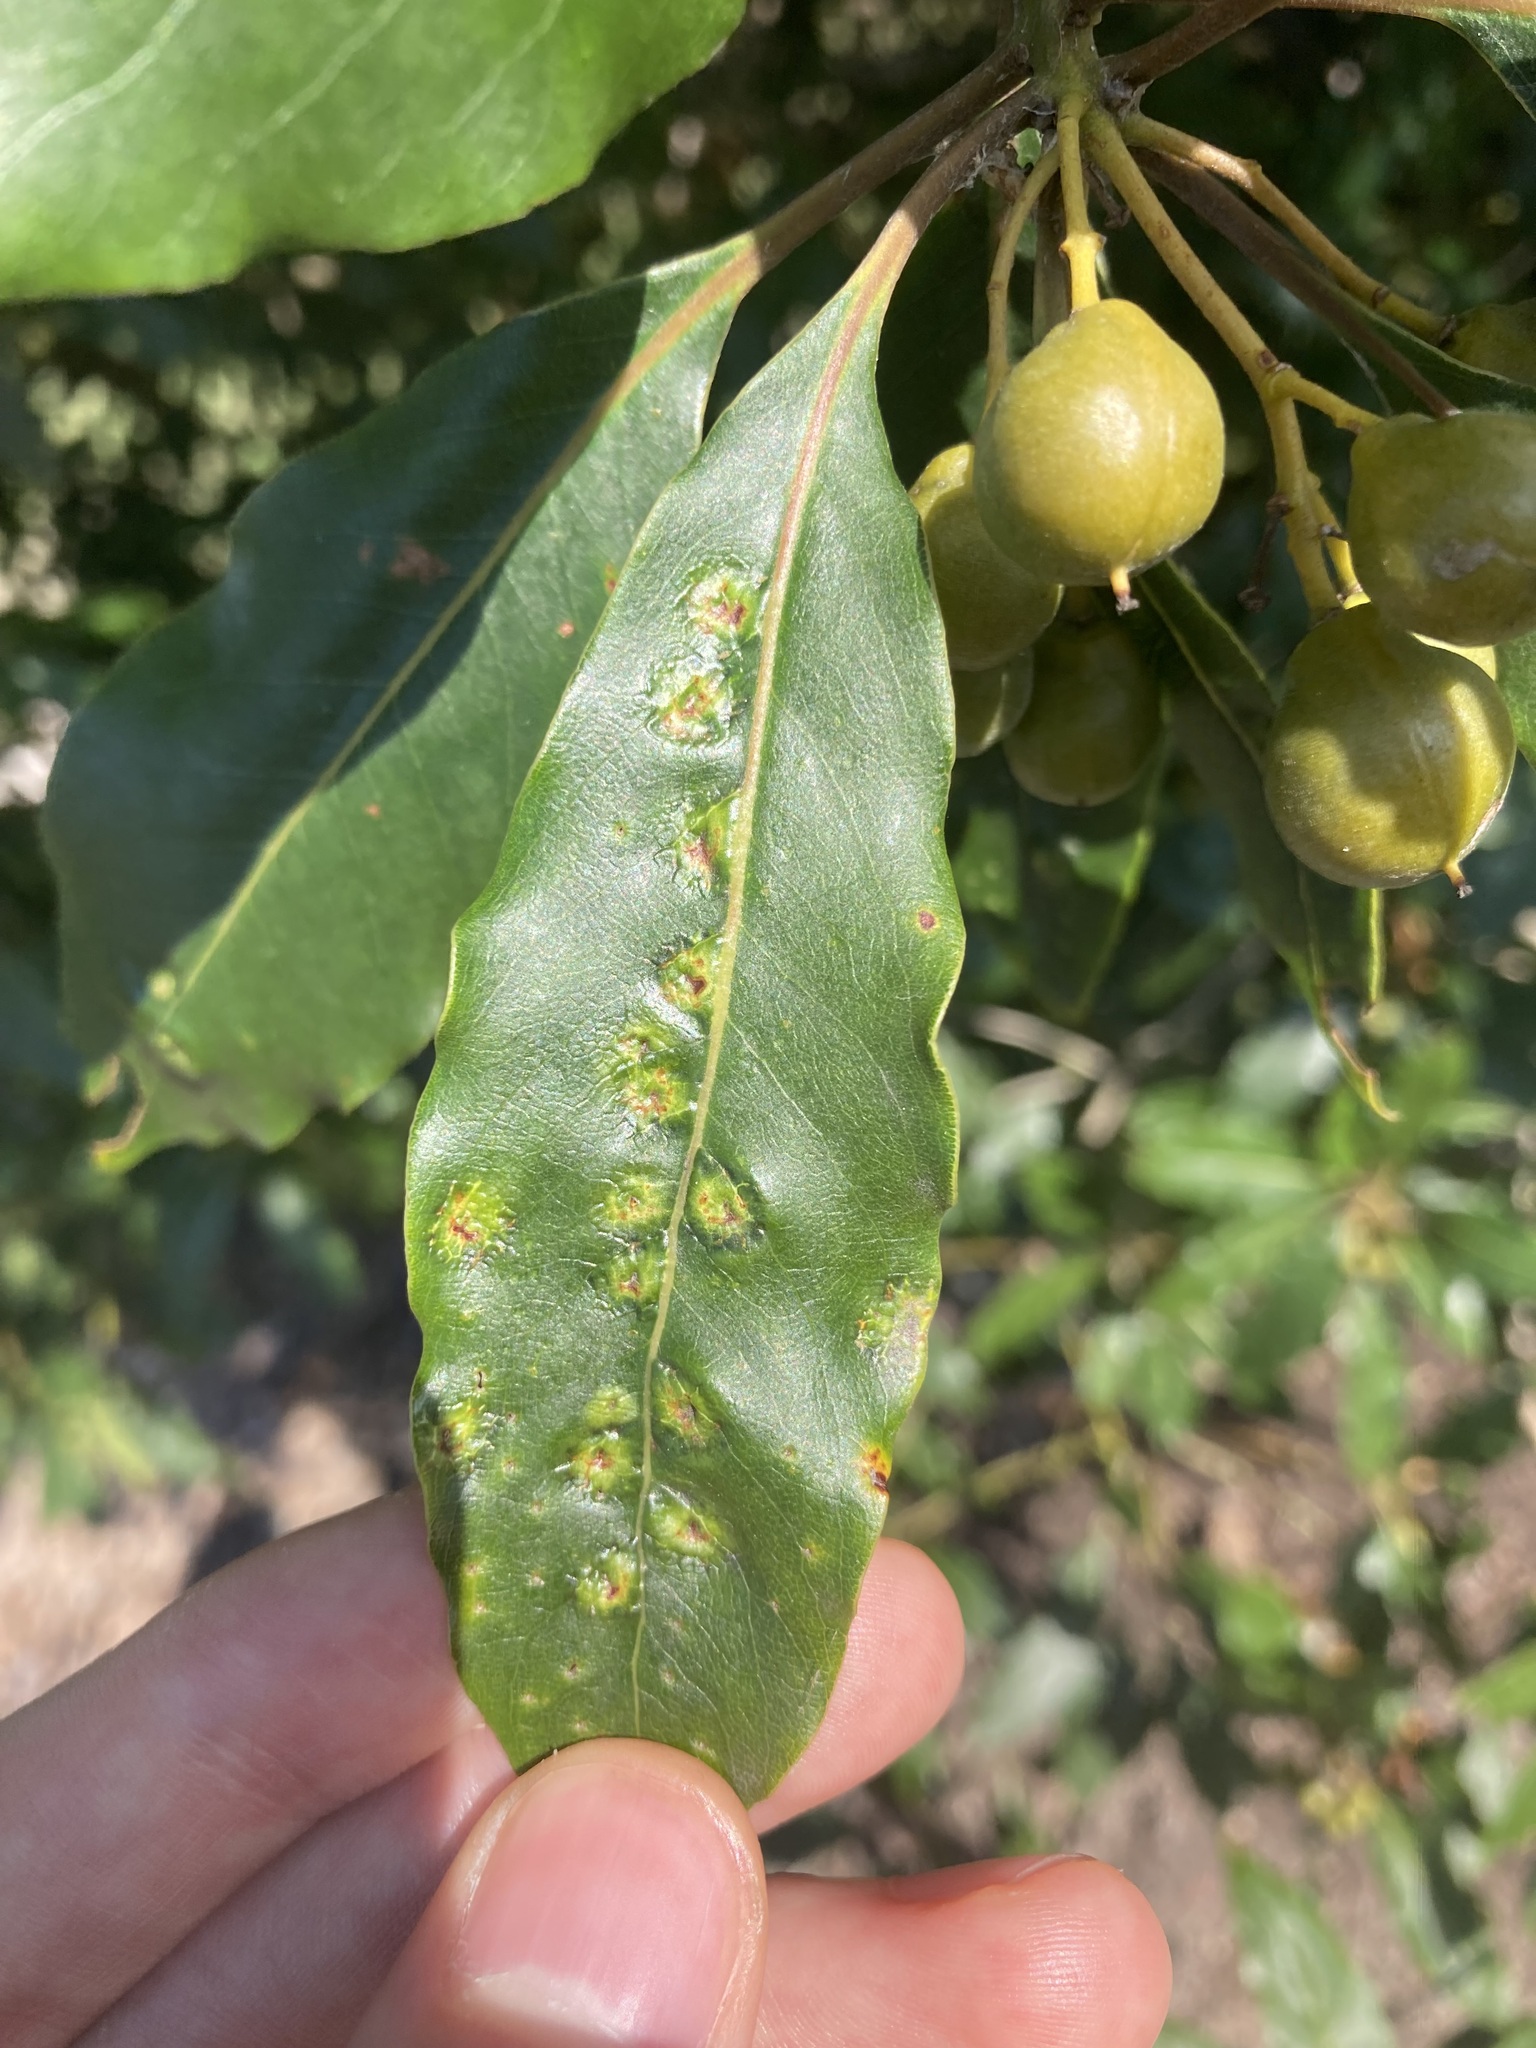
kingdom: Animalia
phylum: Arthropoda
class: Insecta
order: Diptera
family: Agromyzidae
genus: Phytoliriomyza
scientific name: Phytoliriomyza pittosporophylli
